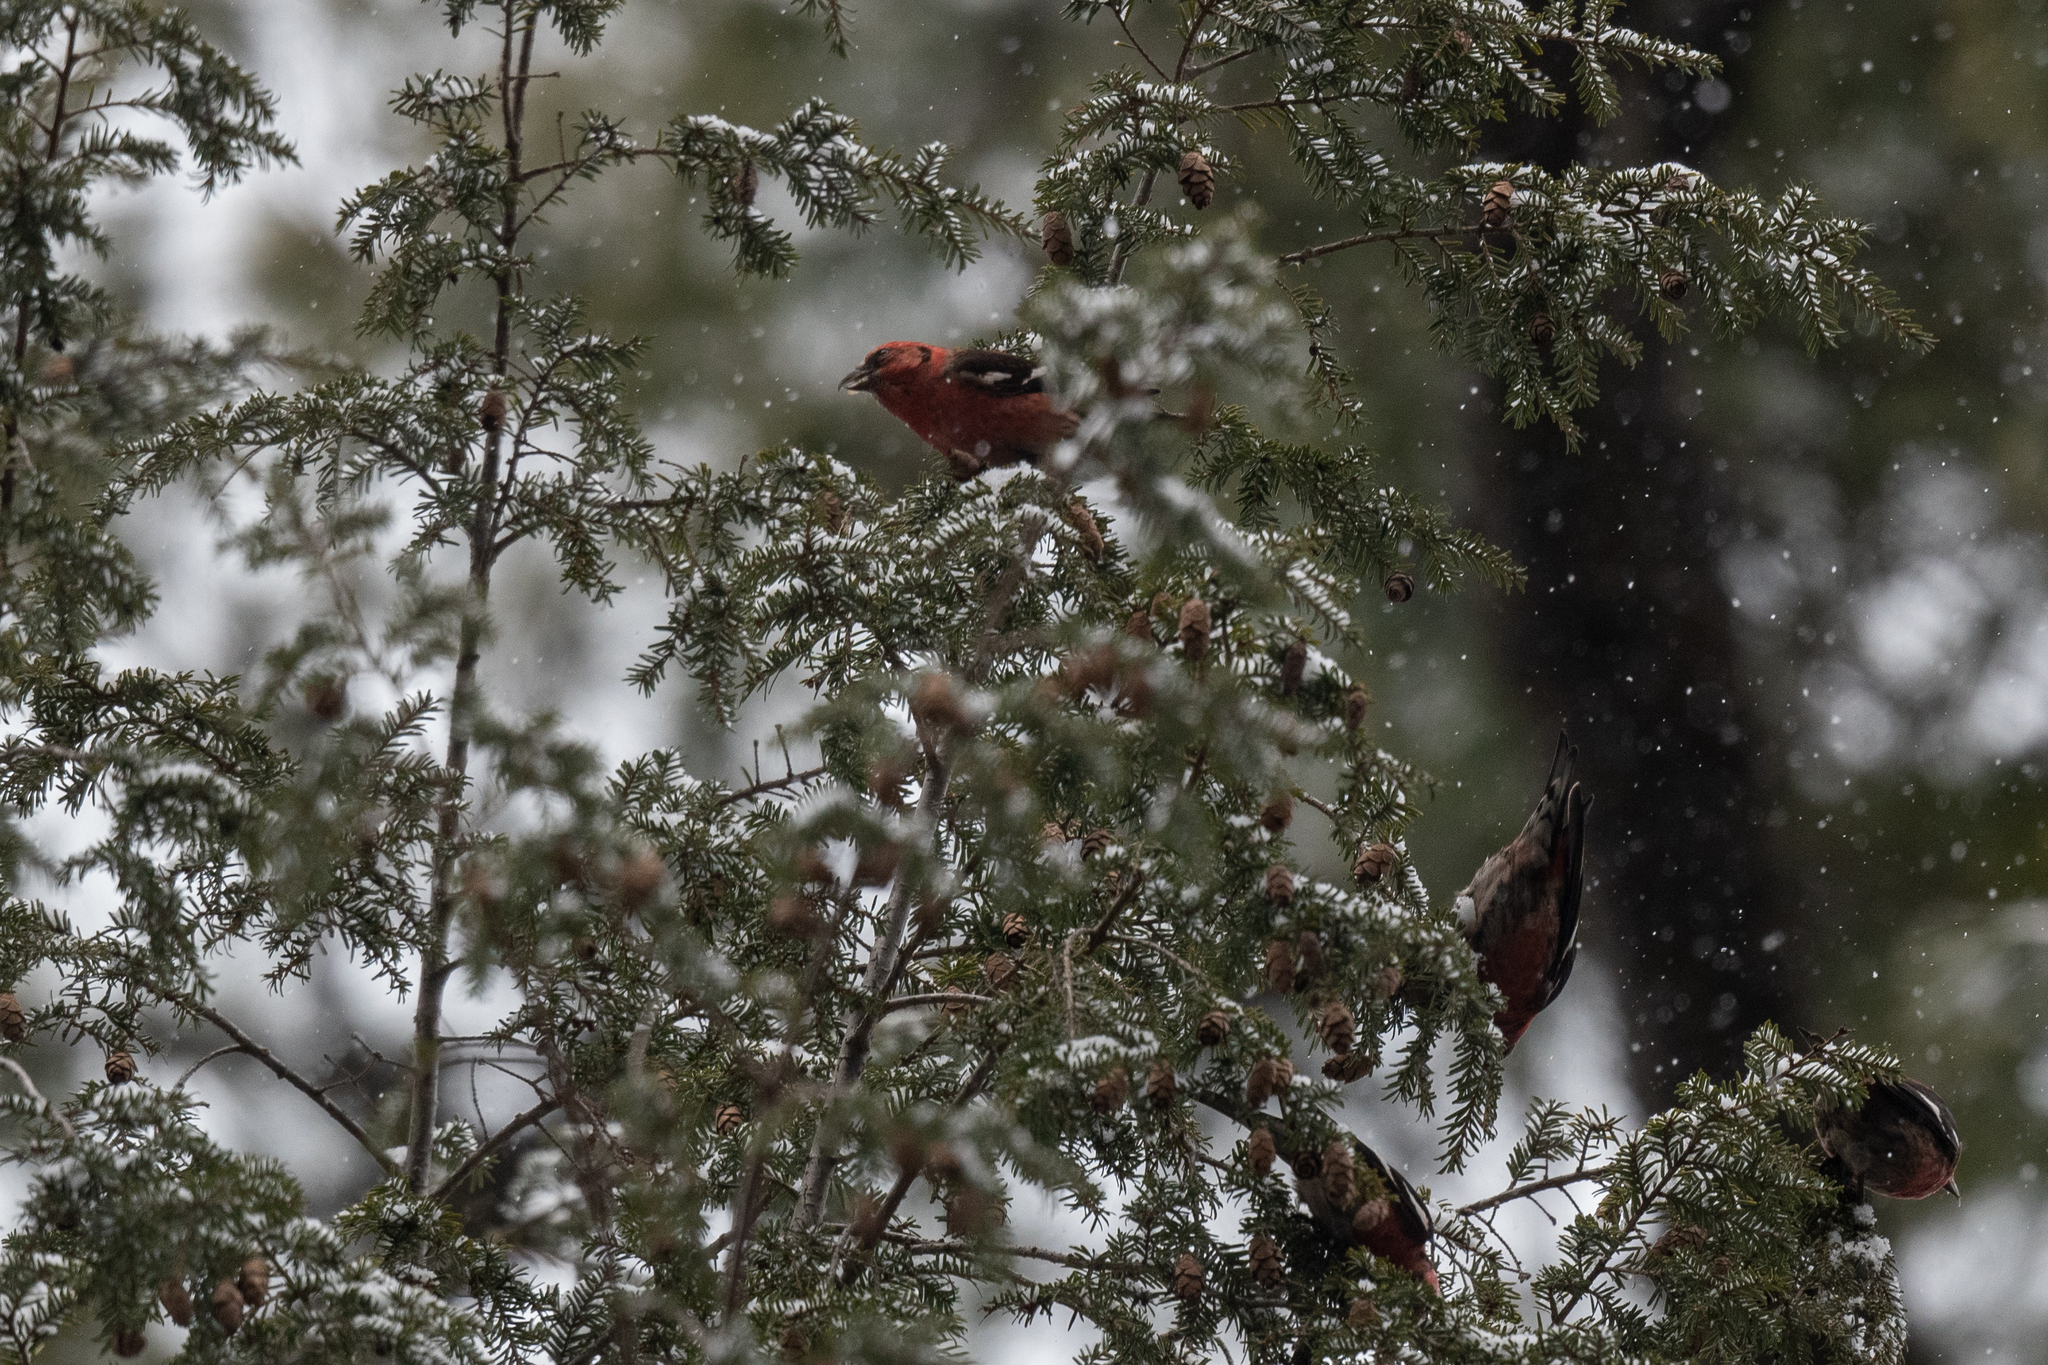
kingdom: Animalia
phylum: Chordata
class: Aves
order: Passeriformes
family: Fringillidae
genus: Loxia
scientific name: Loxia leucoptera
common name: Two-barred crossbill
